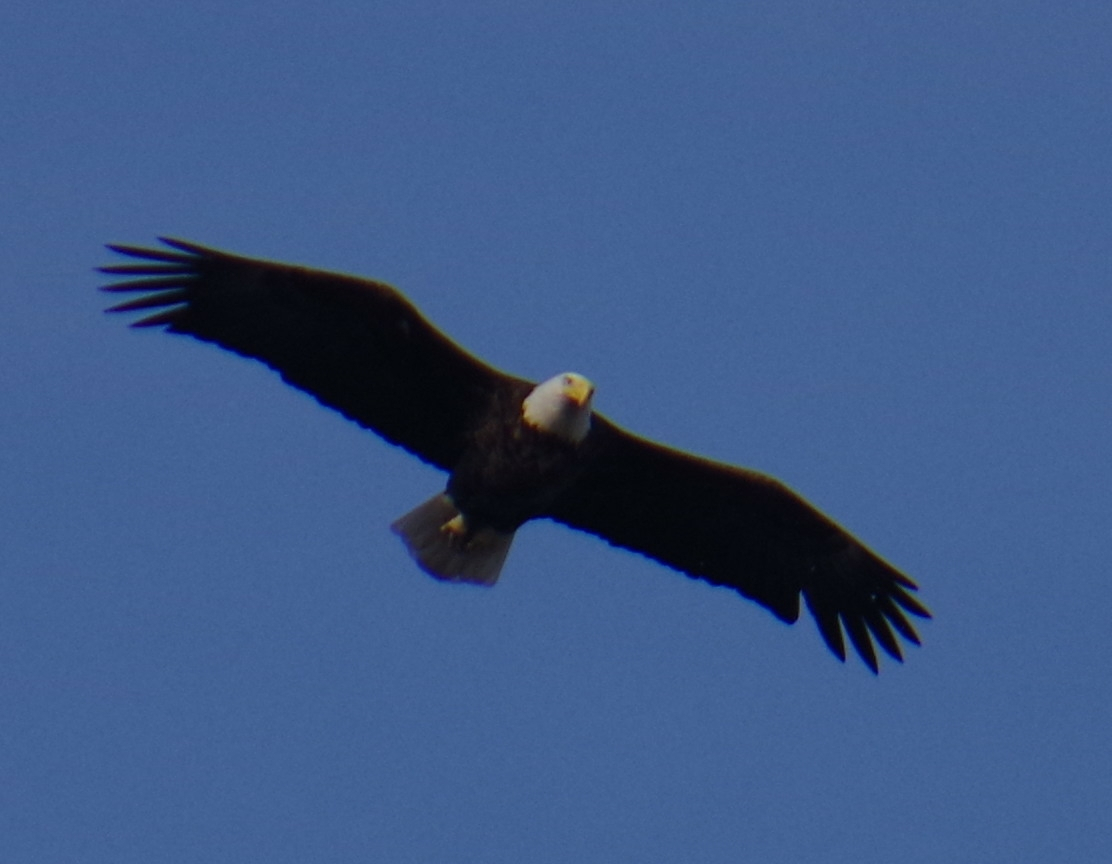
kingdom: Animalia
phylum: Chordata
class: Aves
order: Accipitriformes
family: Accipitridae
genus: Haliaeetus
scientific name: Haliaeetus leucocephalus
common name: Bald eagle
